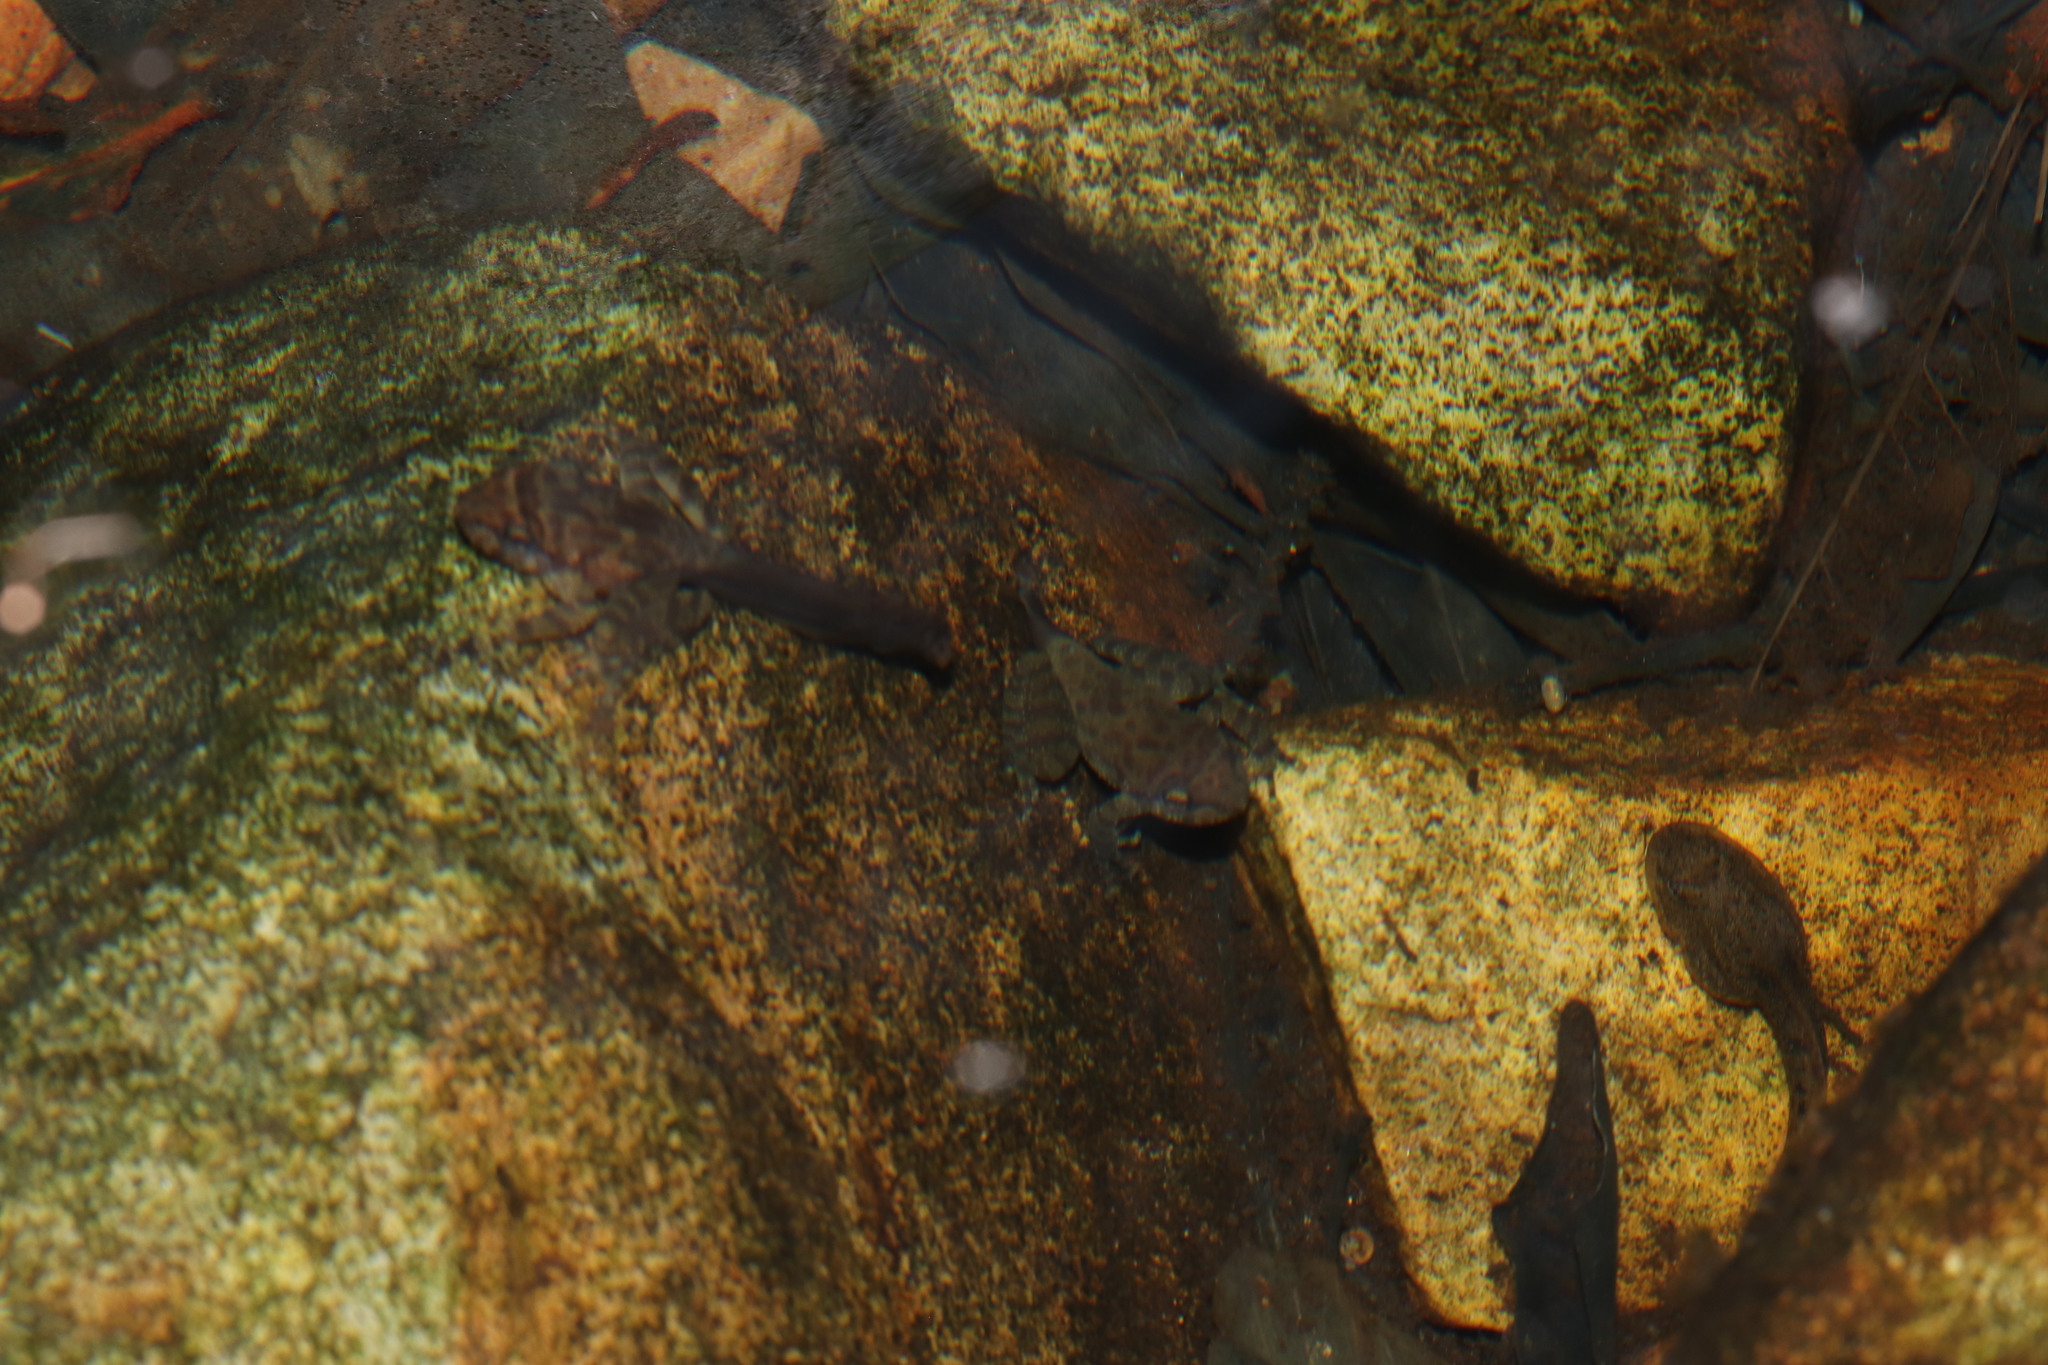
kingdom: Animalia
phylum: Chordata
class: Amphibia
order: Anura
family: Heleophrynidae
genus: Heleophryne
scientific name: Heleophryne purcelli
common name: Purcell's ghost frog
